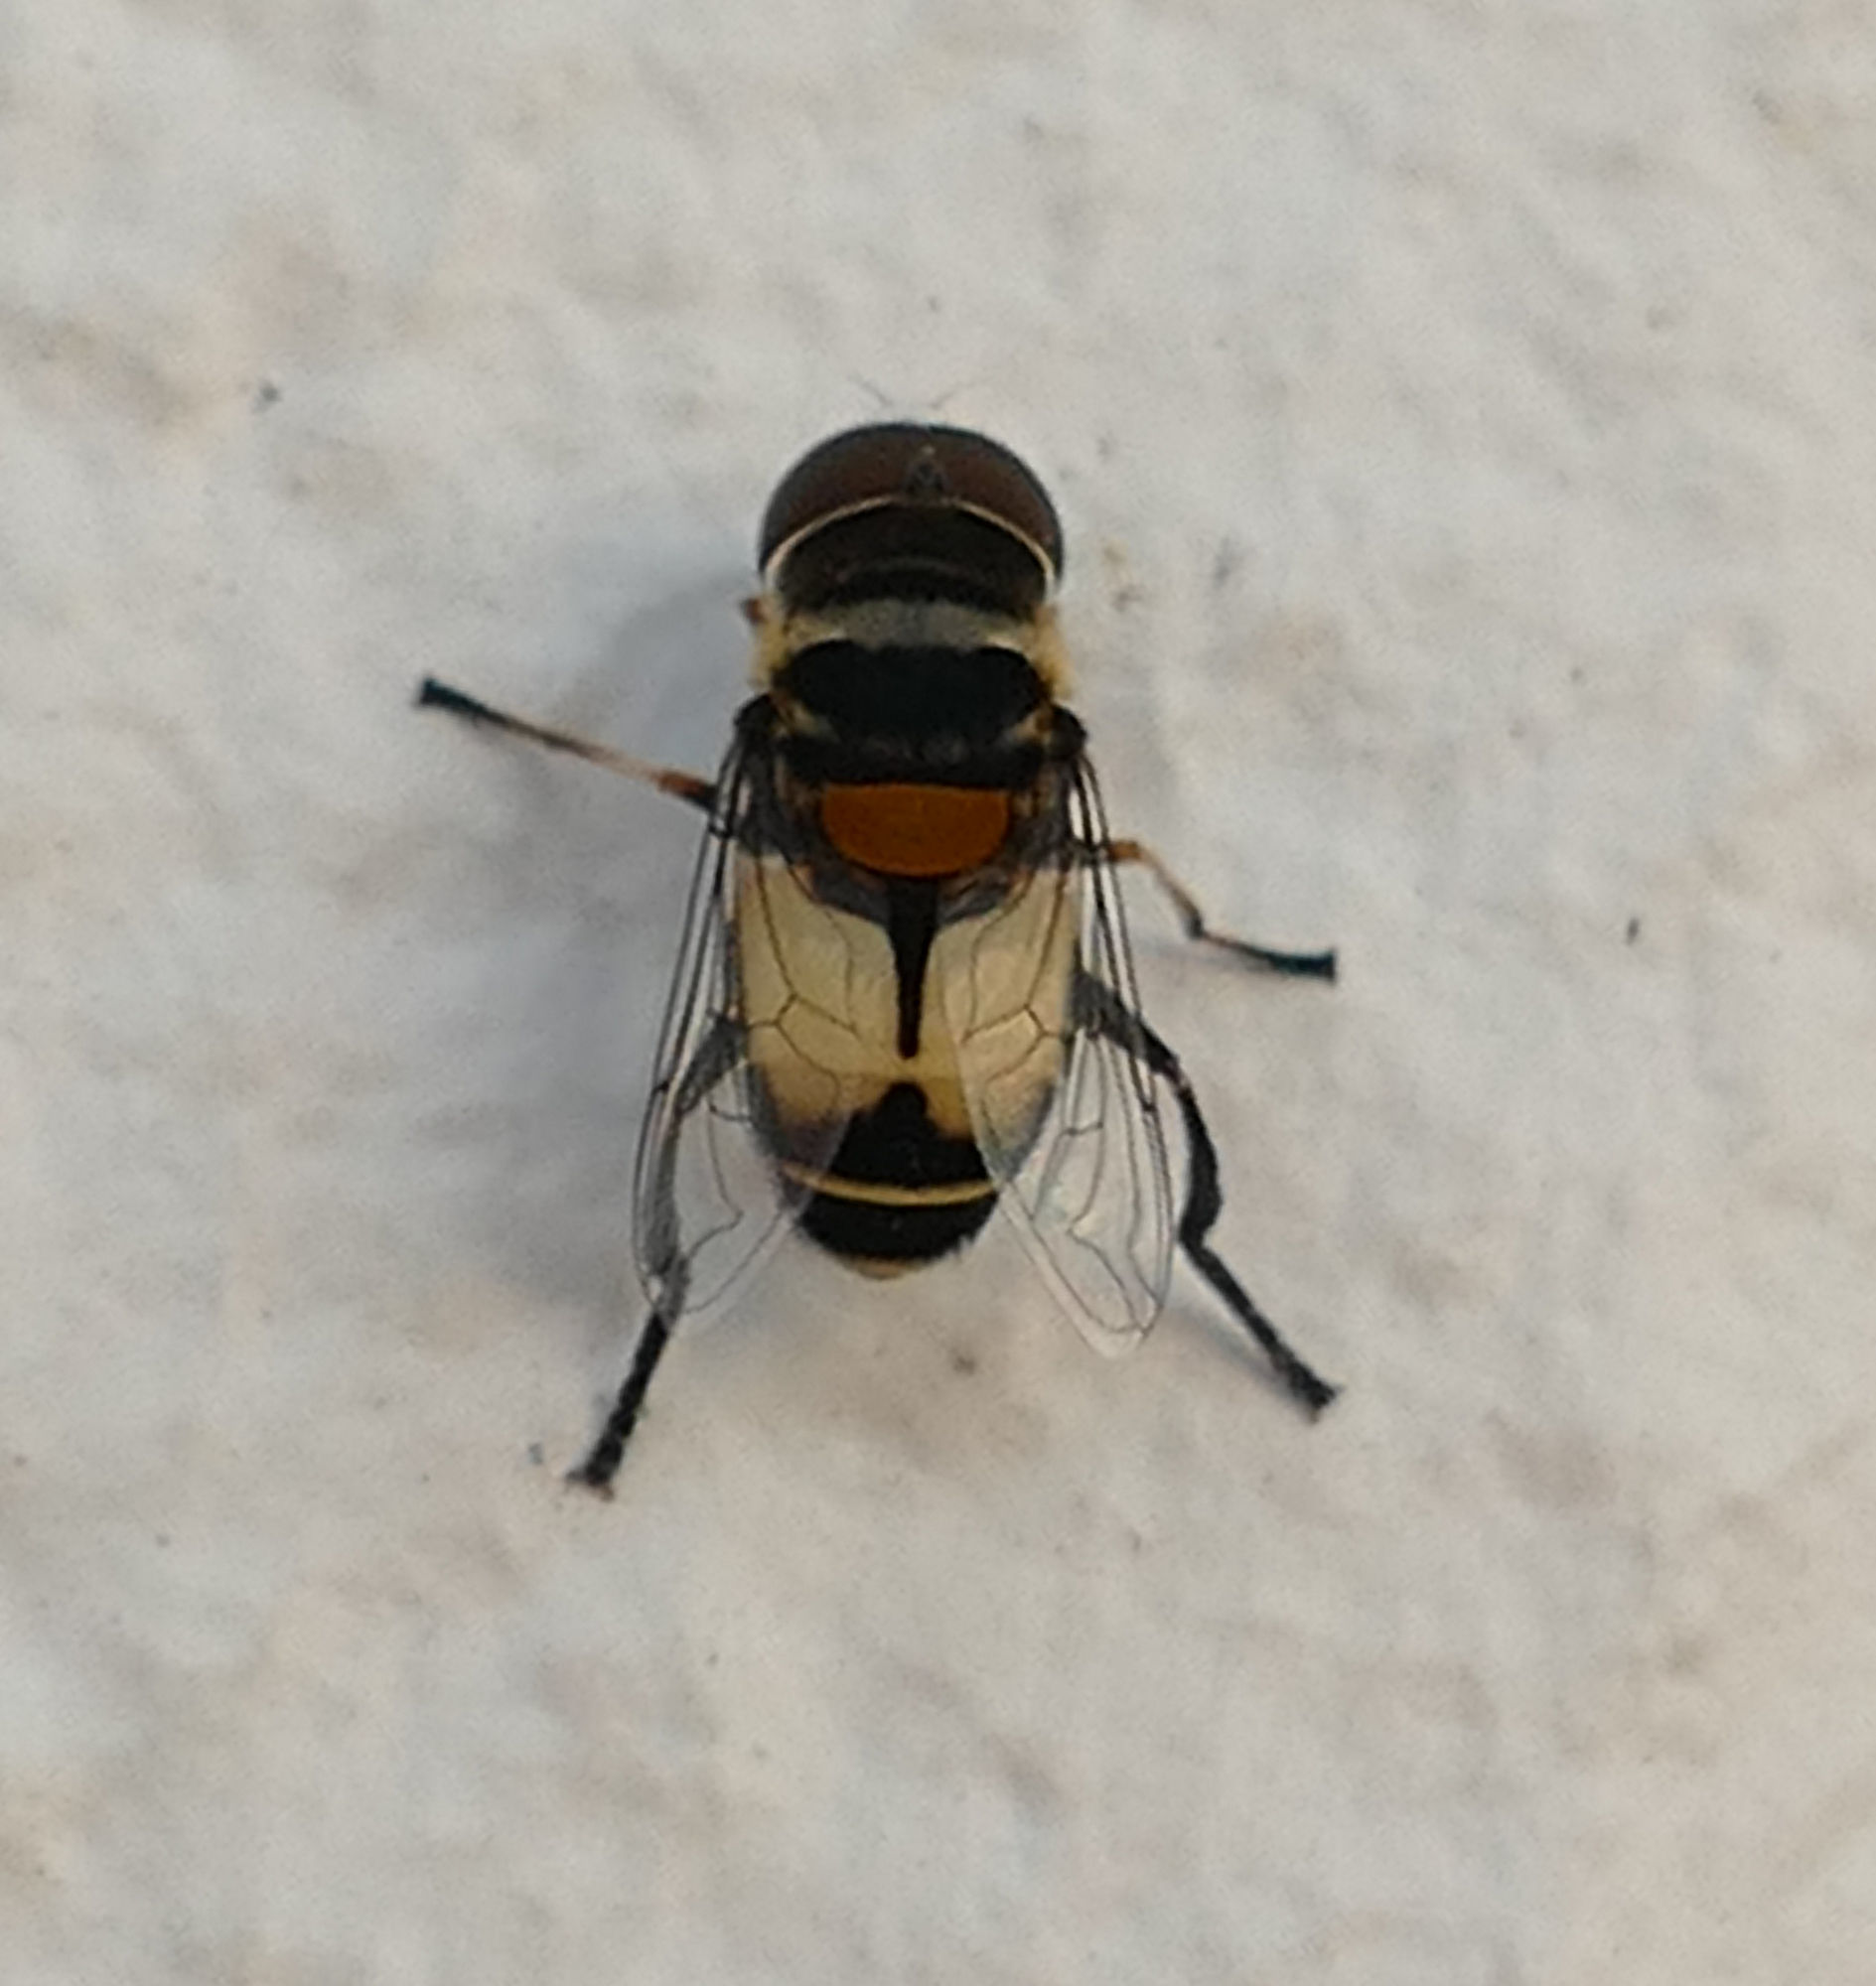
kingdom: Animalia
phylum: Arthropoda
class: Insecta
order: Diptera
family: Syrphidae
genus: Palpada
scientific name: Palpada albifrons
